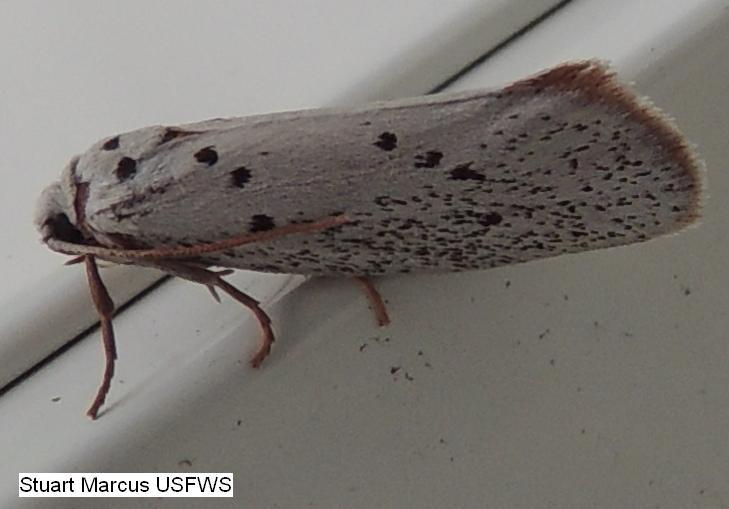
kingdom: Animalia
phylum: Arthropoda
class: Insecta
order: Lepidoptera
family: Lacturidae
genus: Lactura
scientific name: Lactura
